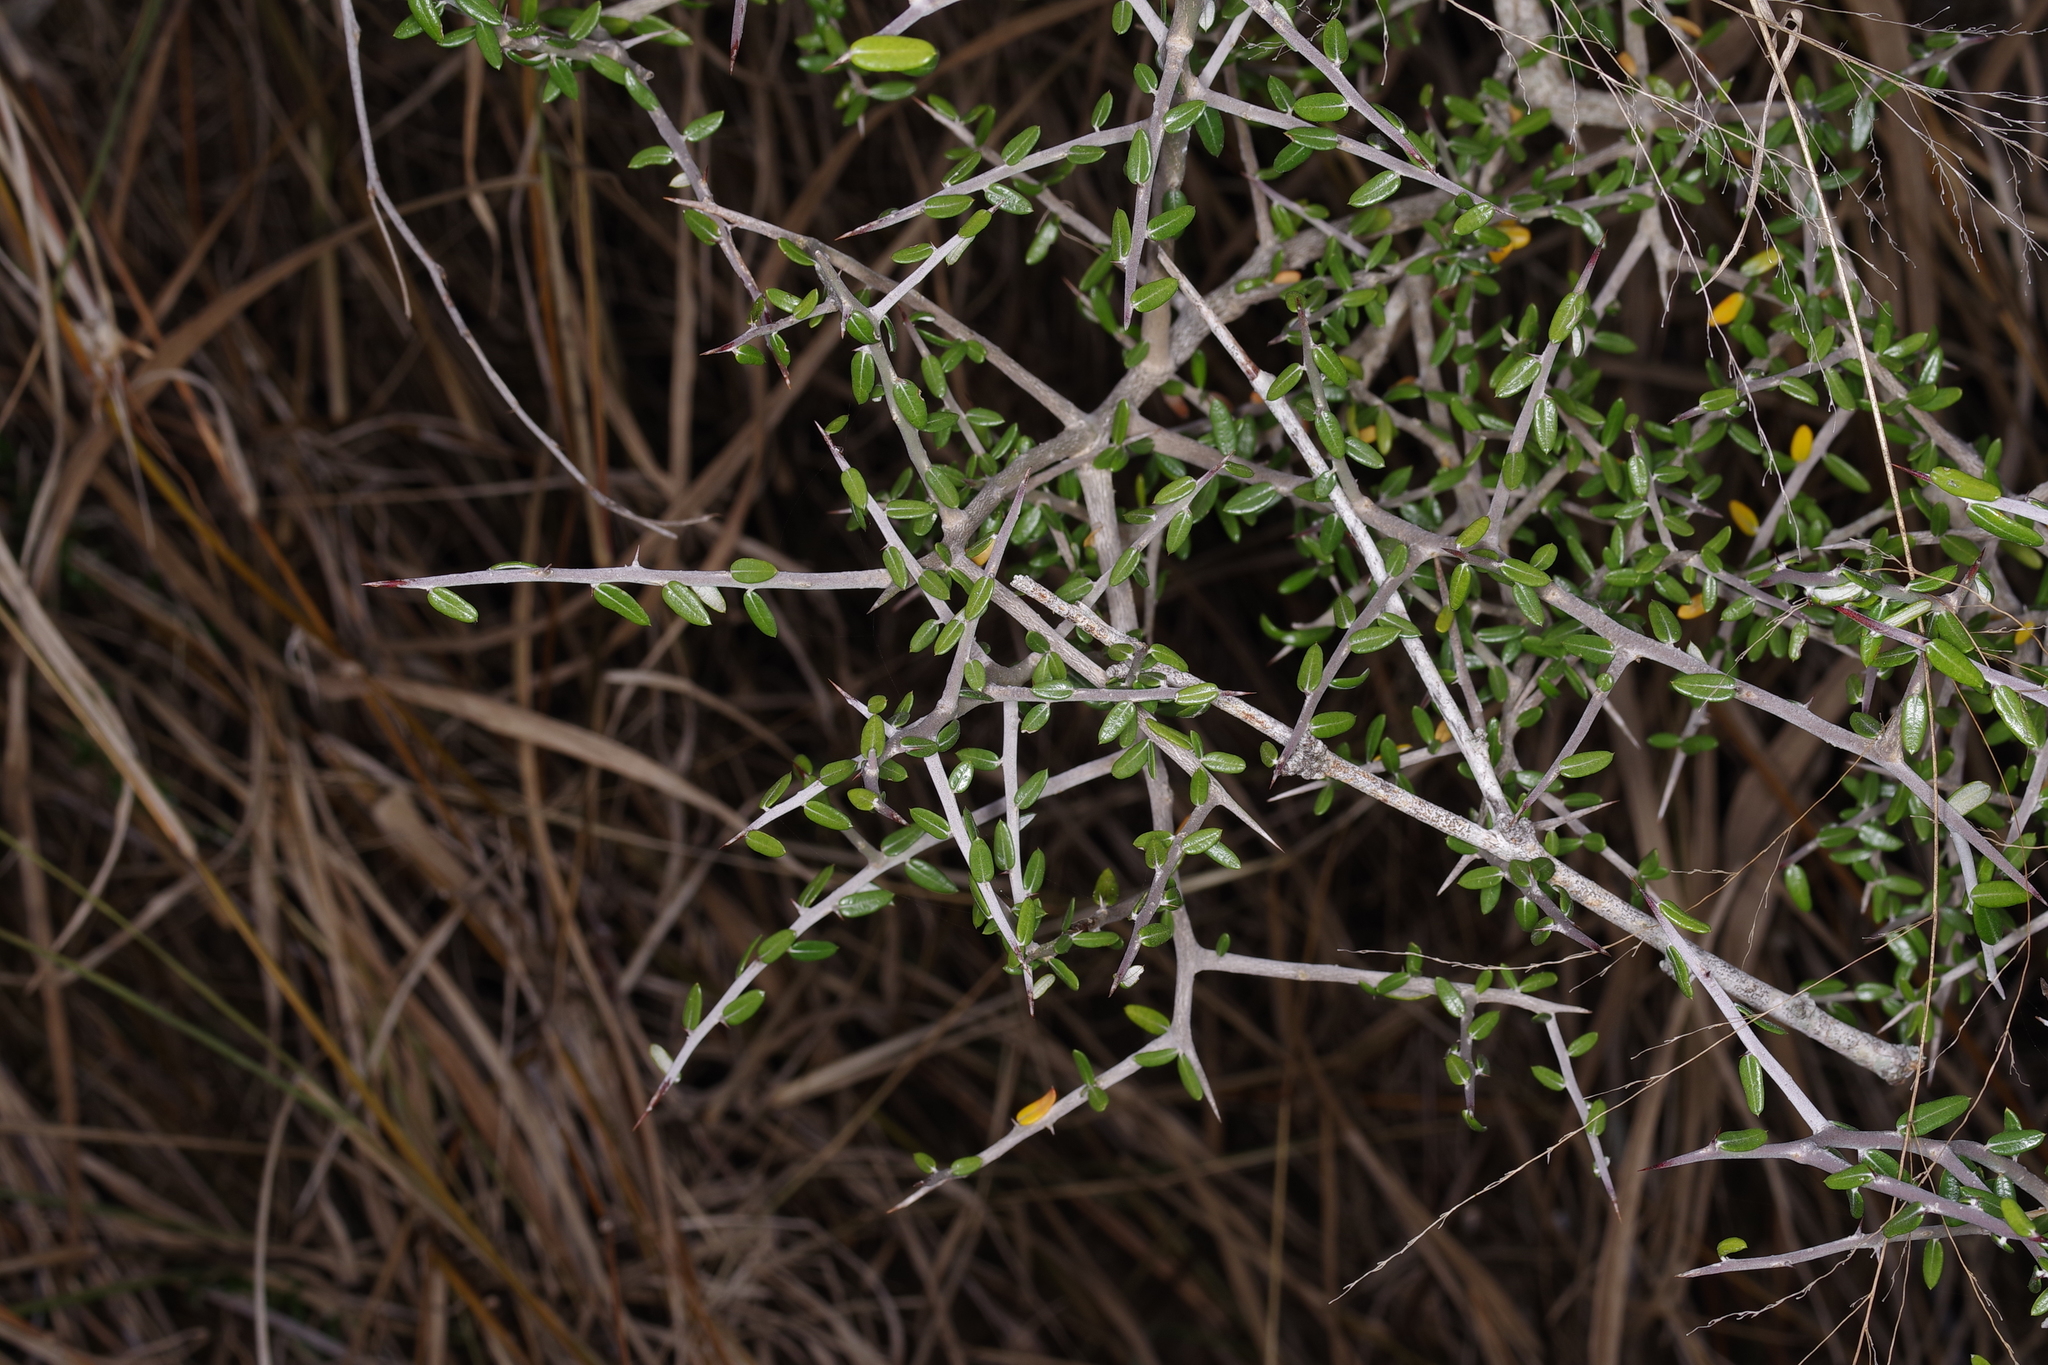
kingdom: Plantae
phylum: Tracheophyta
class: Magnoliopsida
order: Sapindales
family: Simaroubaceae
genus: Castela
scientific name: Castela erecta
